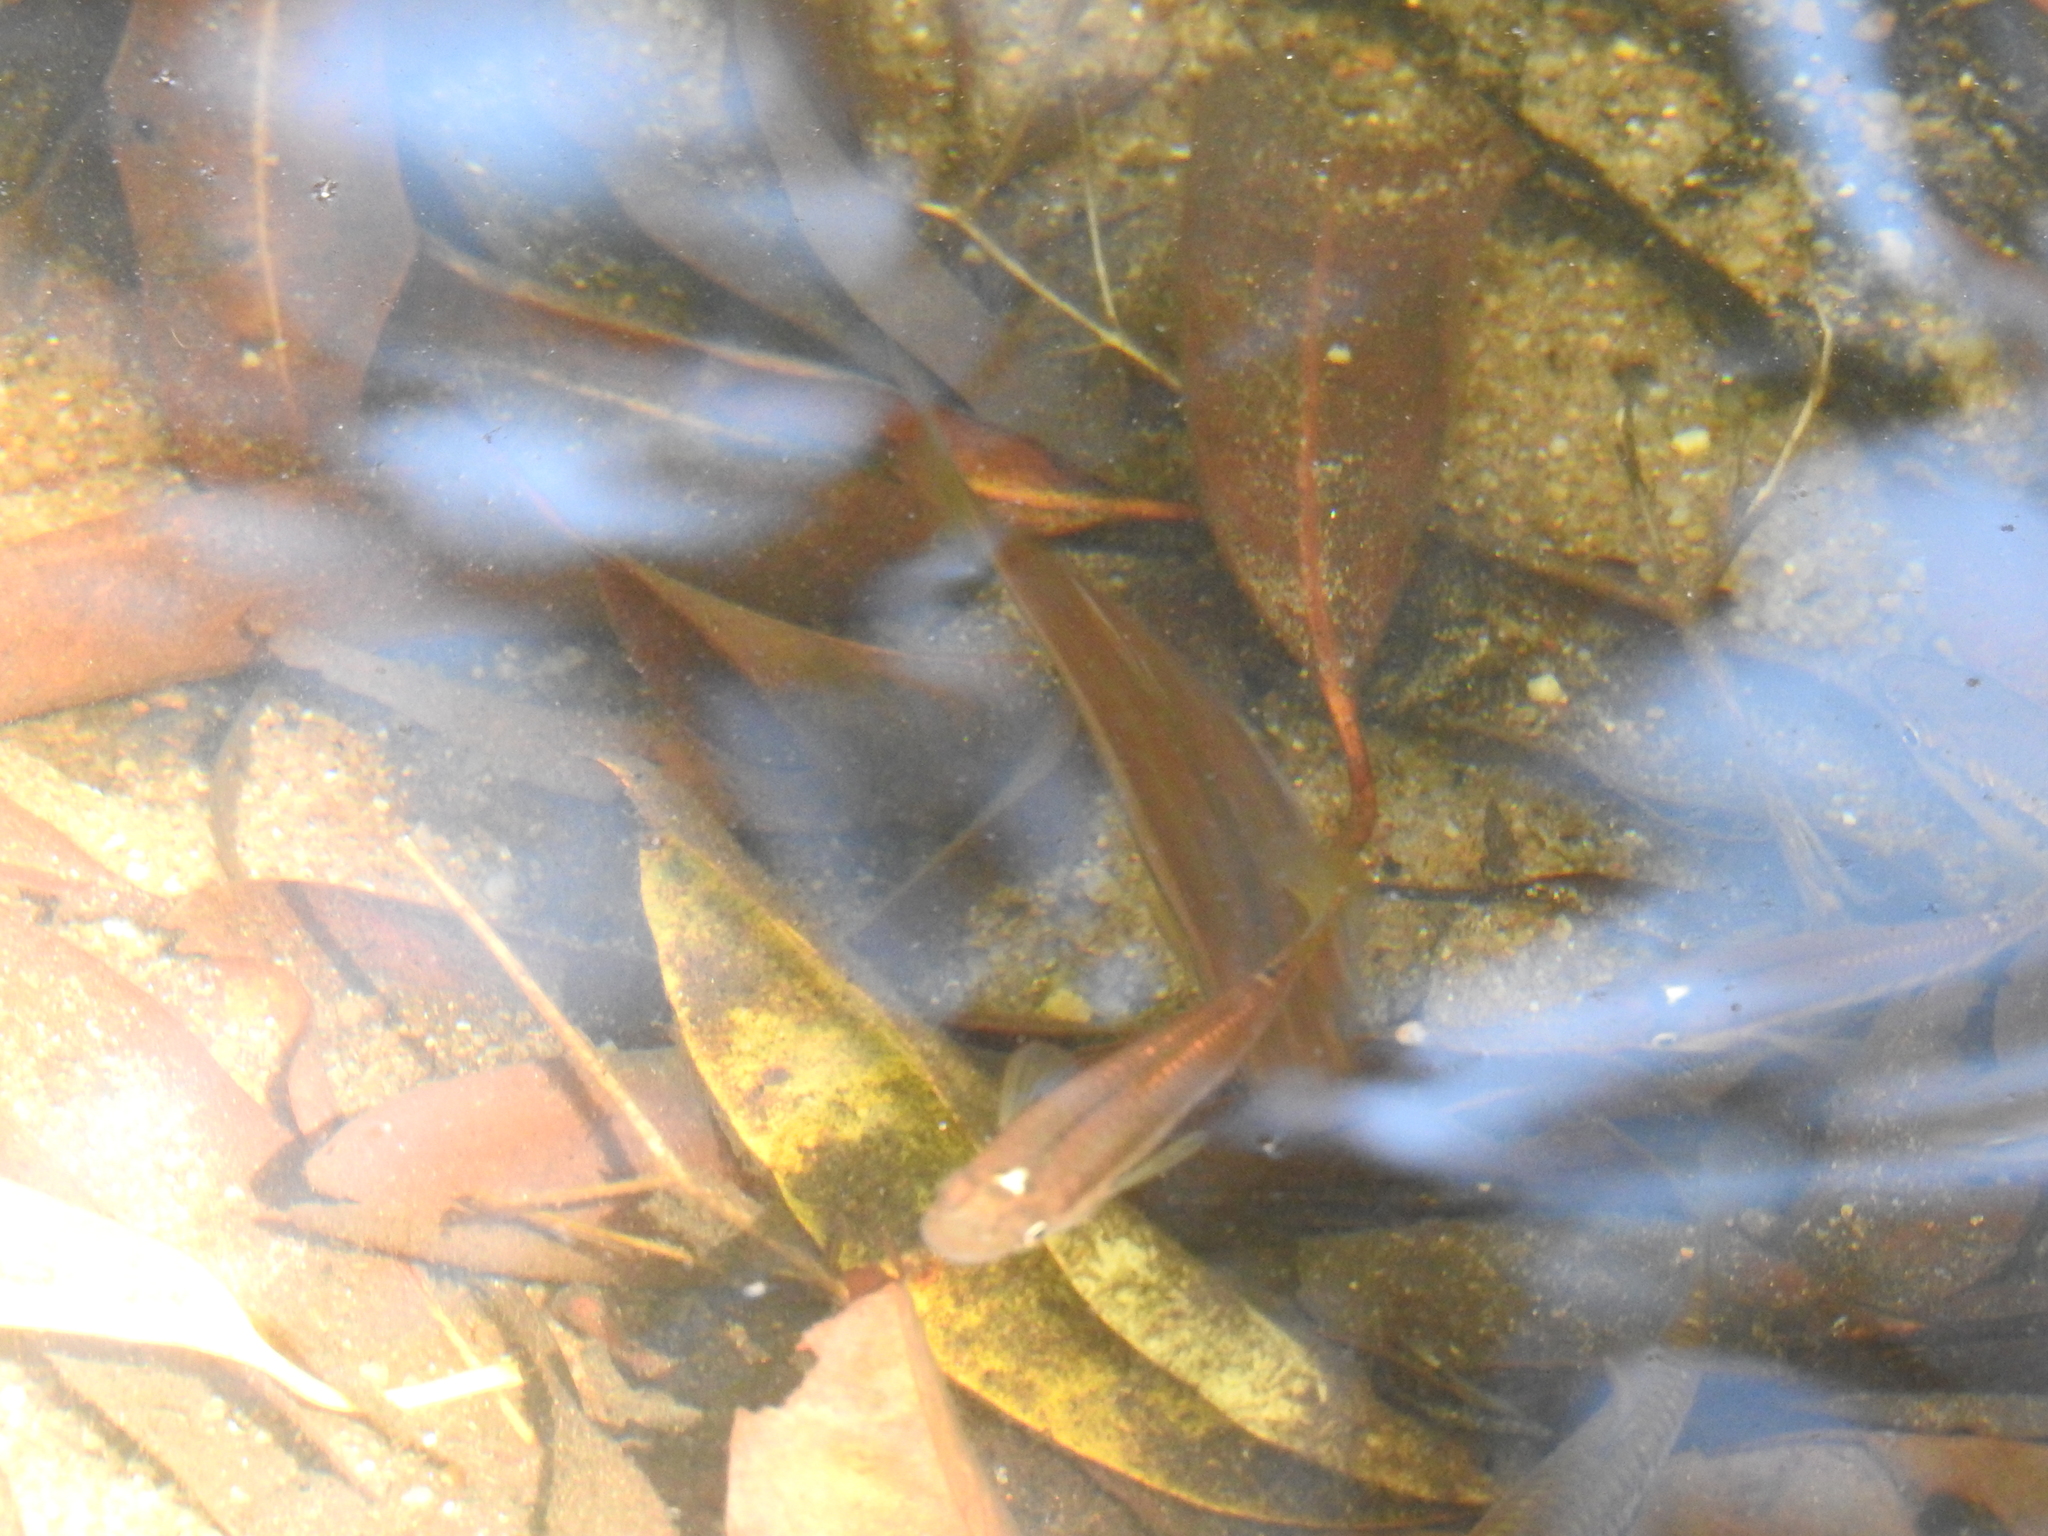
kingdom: Animalia
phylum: Chordata
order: Cyprinodontiformes
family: Aplocheilidae
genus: Aplocheilus
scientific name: Aplocheilus lineatus
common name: Striped panchax
